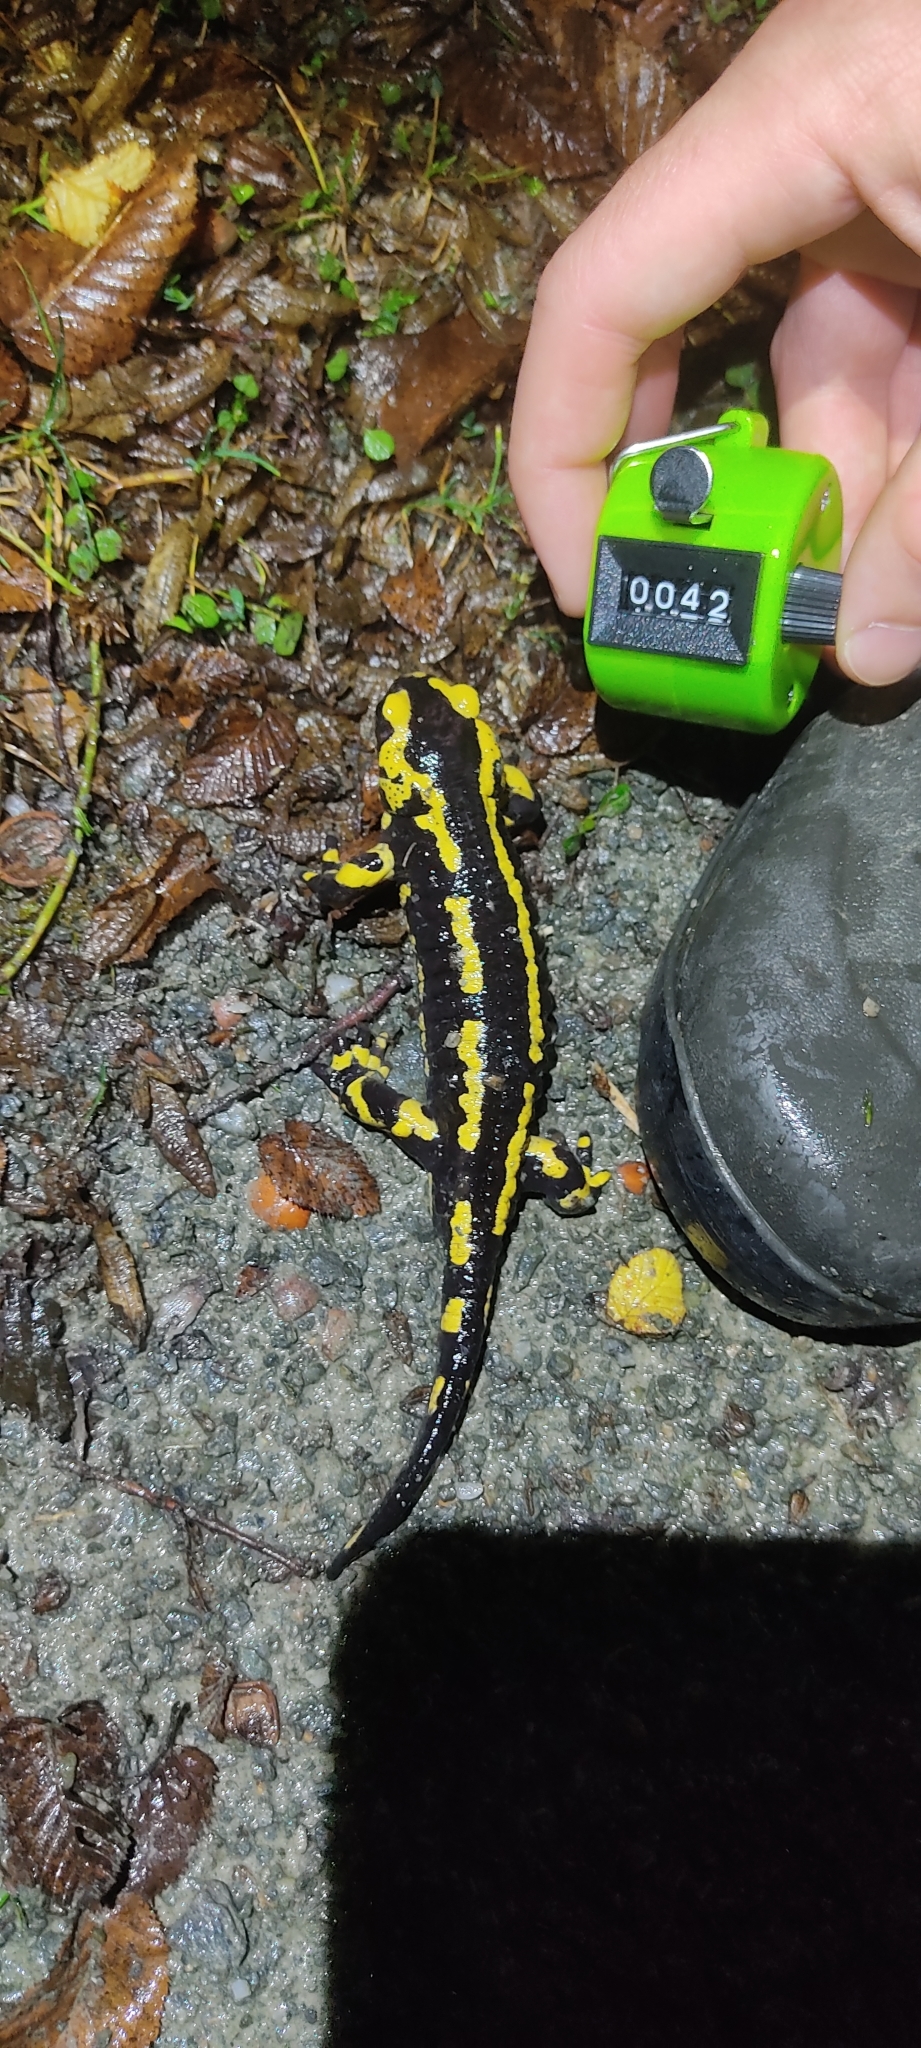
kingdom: Animalia
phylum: Chordata
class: Amphibia
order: Caudata
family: Salamandridae
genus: Salamandra
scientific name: Salamandra salamandra
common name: Fire salamander
